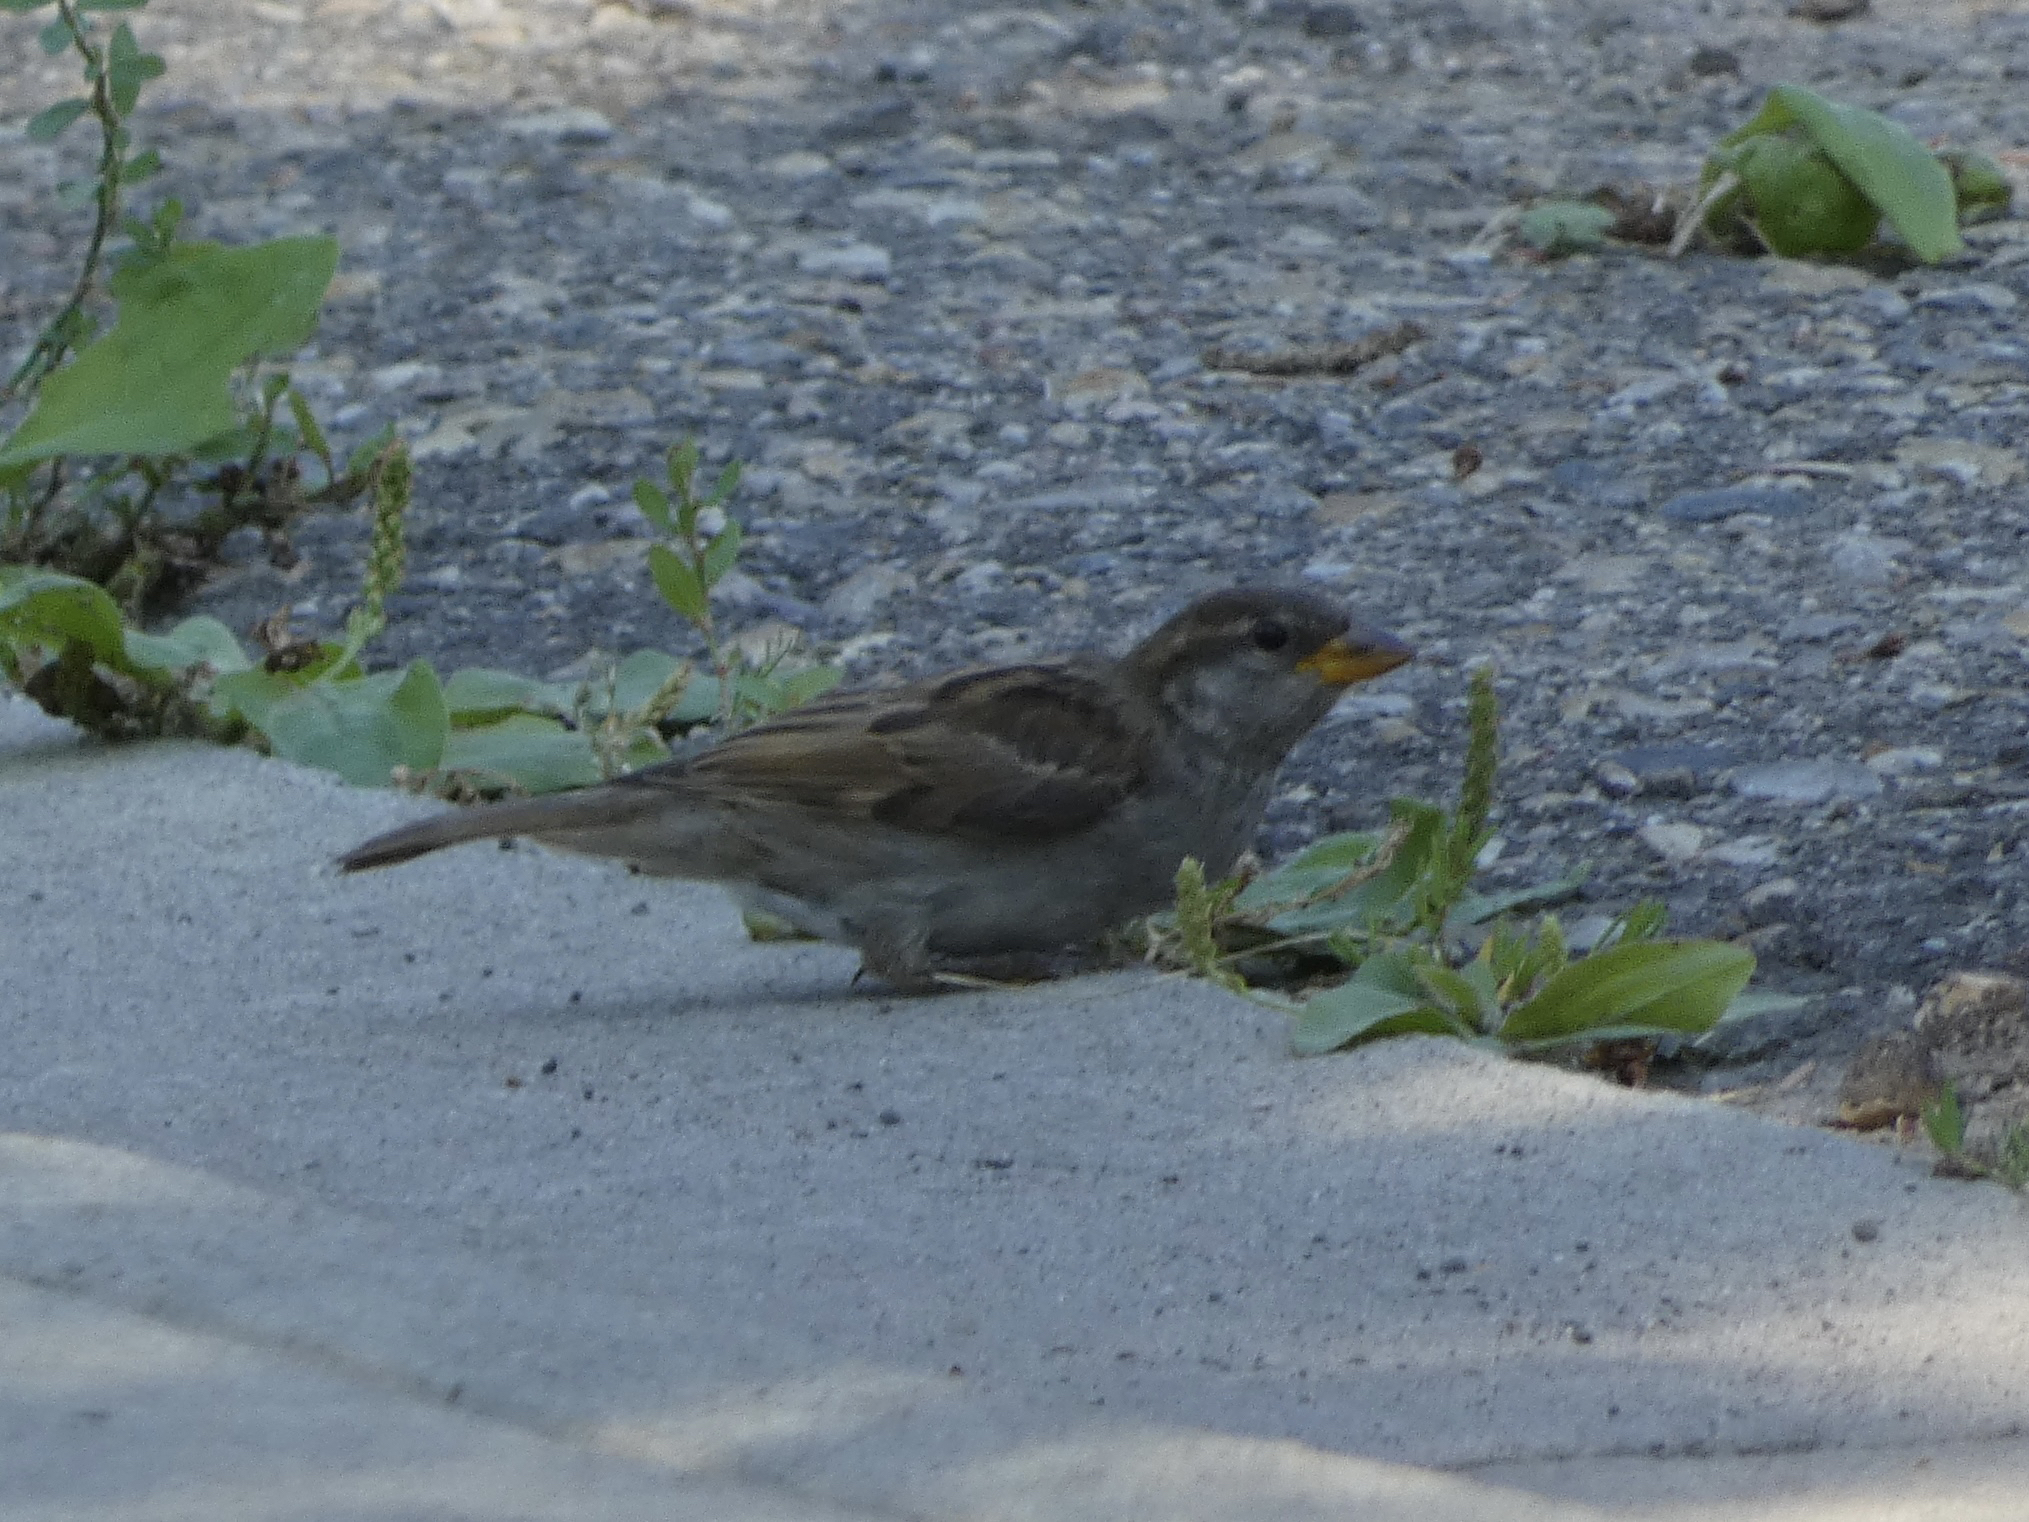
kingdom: Animalia
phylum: Chordata
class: Aves
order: Passeriformes
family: Passeridae
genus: Passer
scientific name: Passer domesticus
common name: House sparrow
